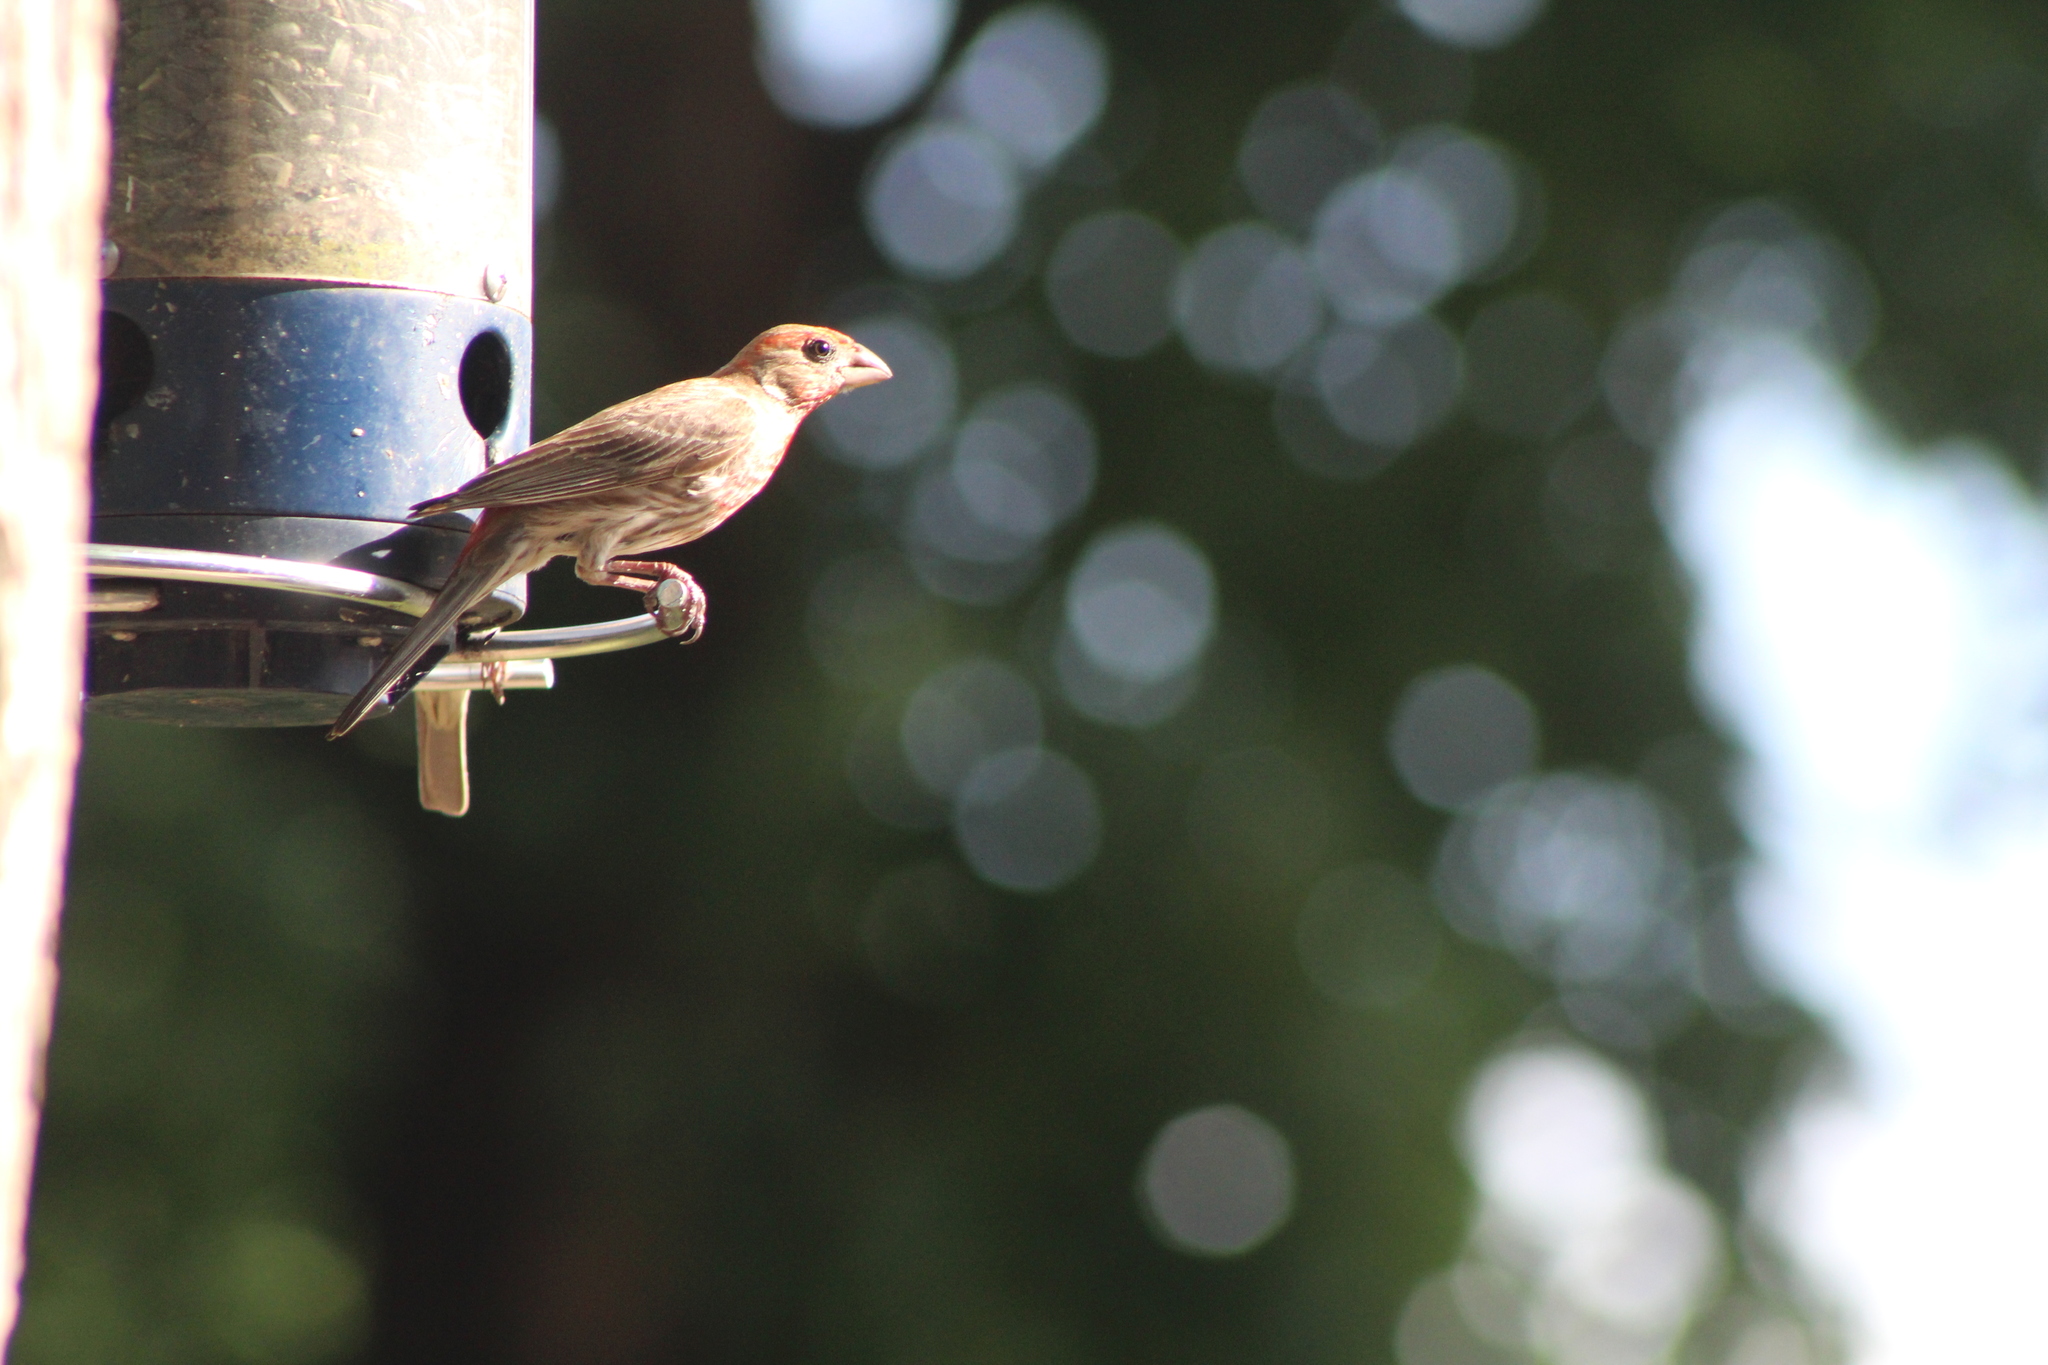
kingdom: Animalia
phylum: Chordata
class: Aves
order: Passeriformes
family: Fringillidae
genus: Haemorhous
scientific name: Haemorhous mexicanus
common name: House finch
